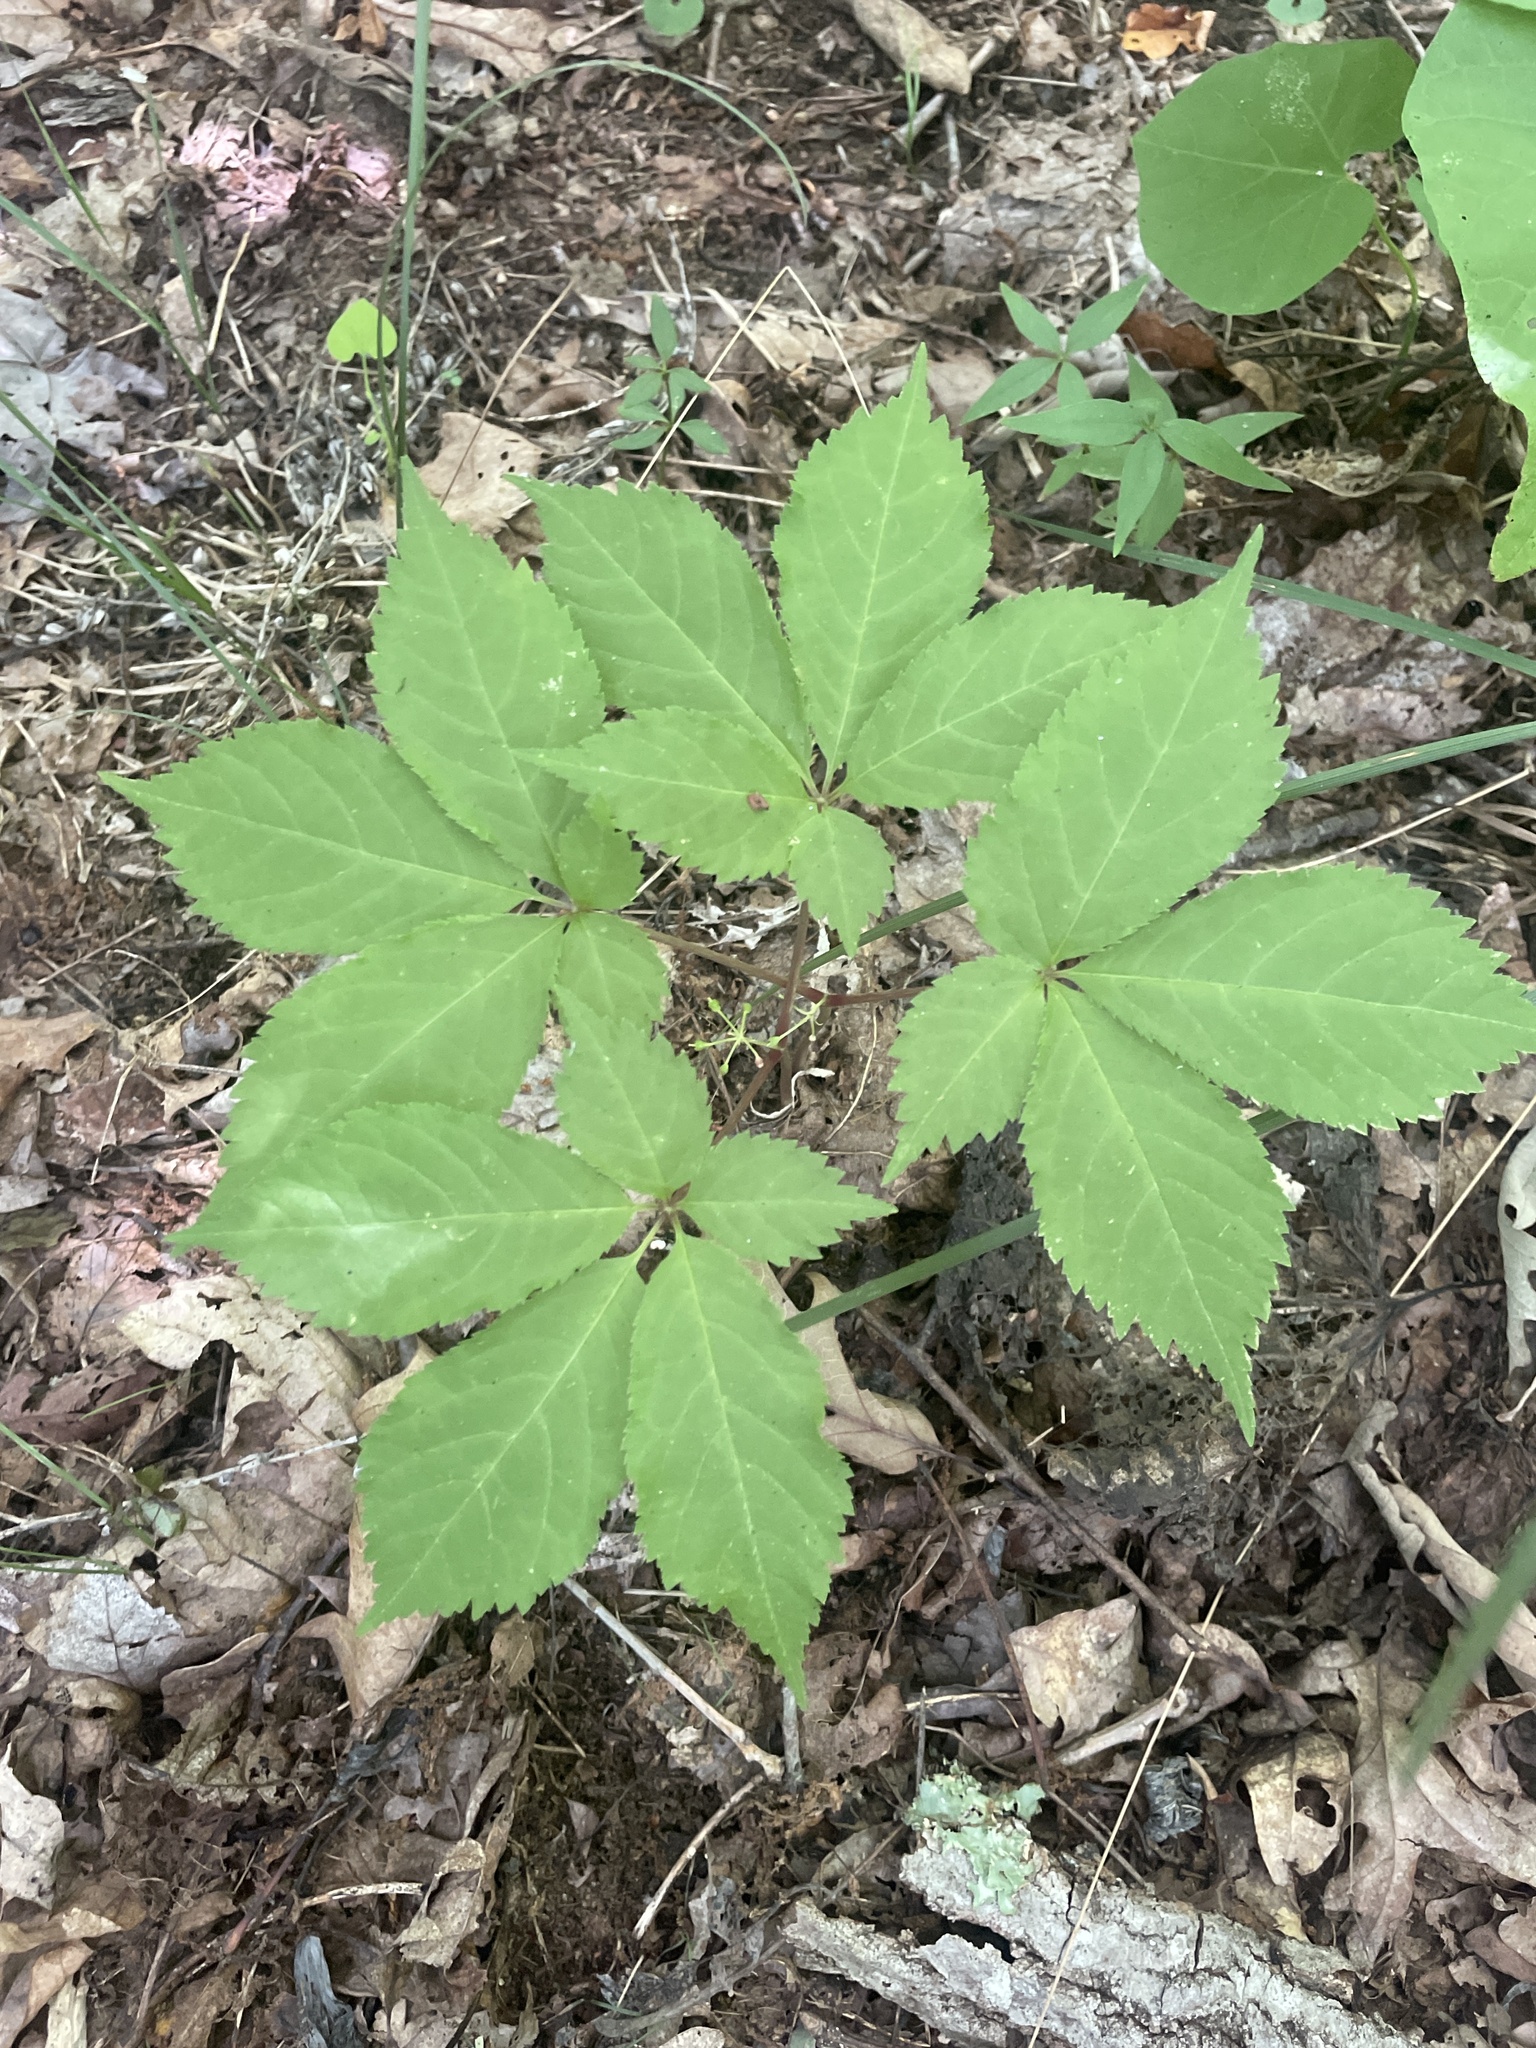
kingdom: Plantae
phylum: Tracheophyta
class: Magnoliopsida
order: Apiales
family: Araliaceae
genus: Panax
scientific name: Panax quinquefolius
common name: American ginseng
